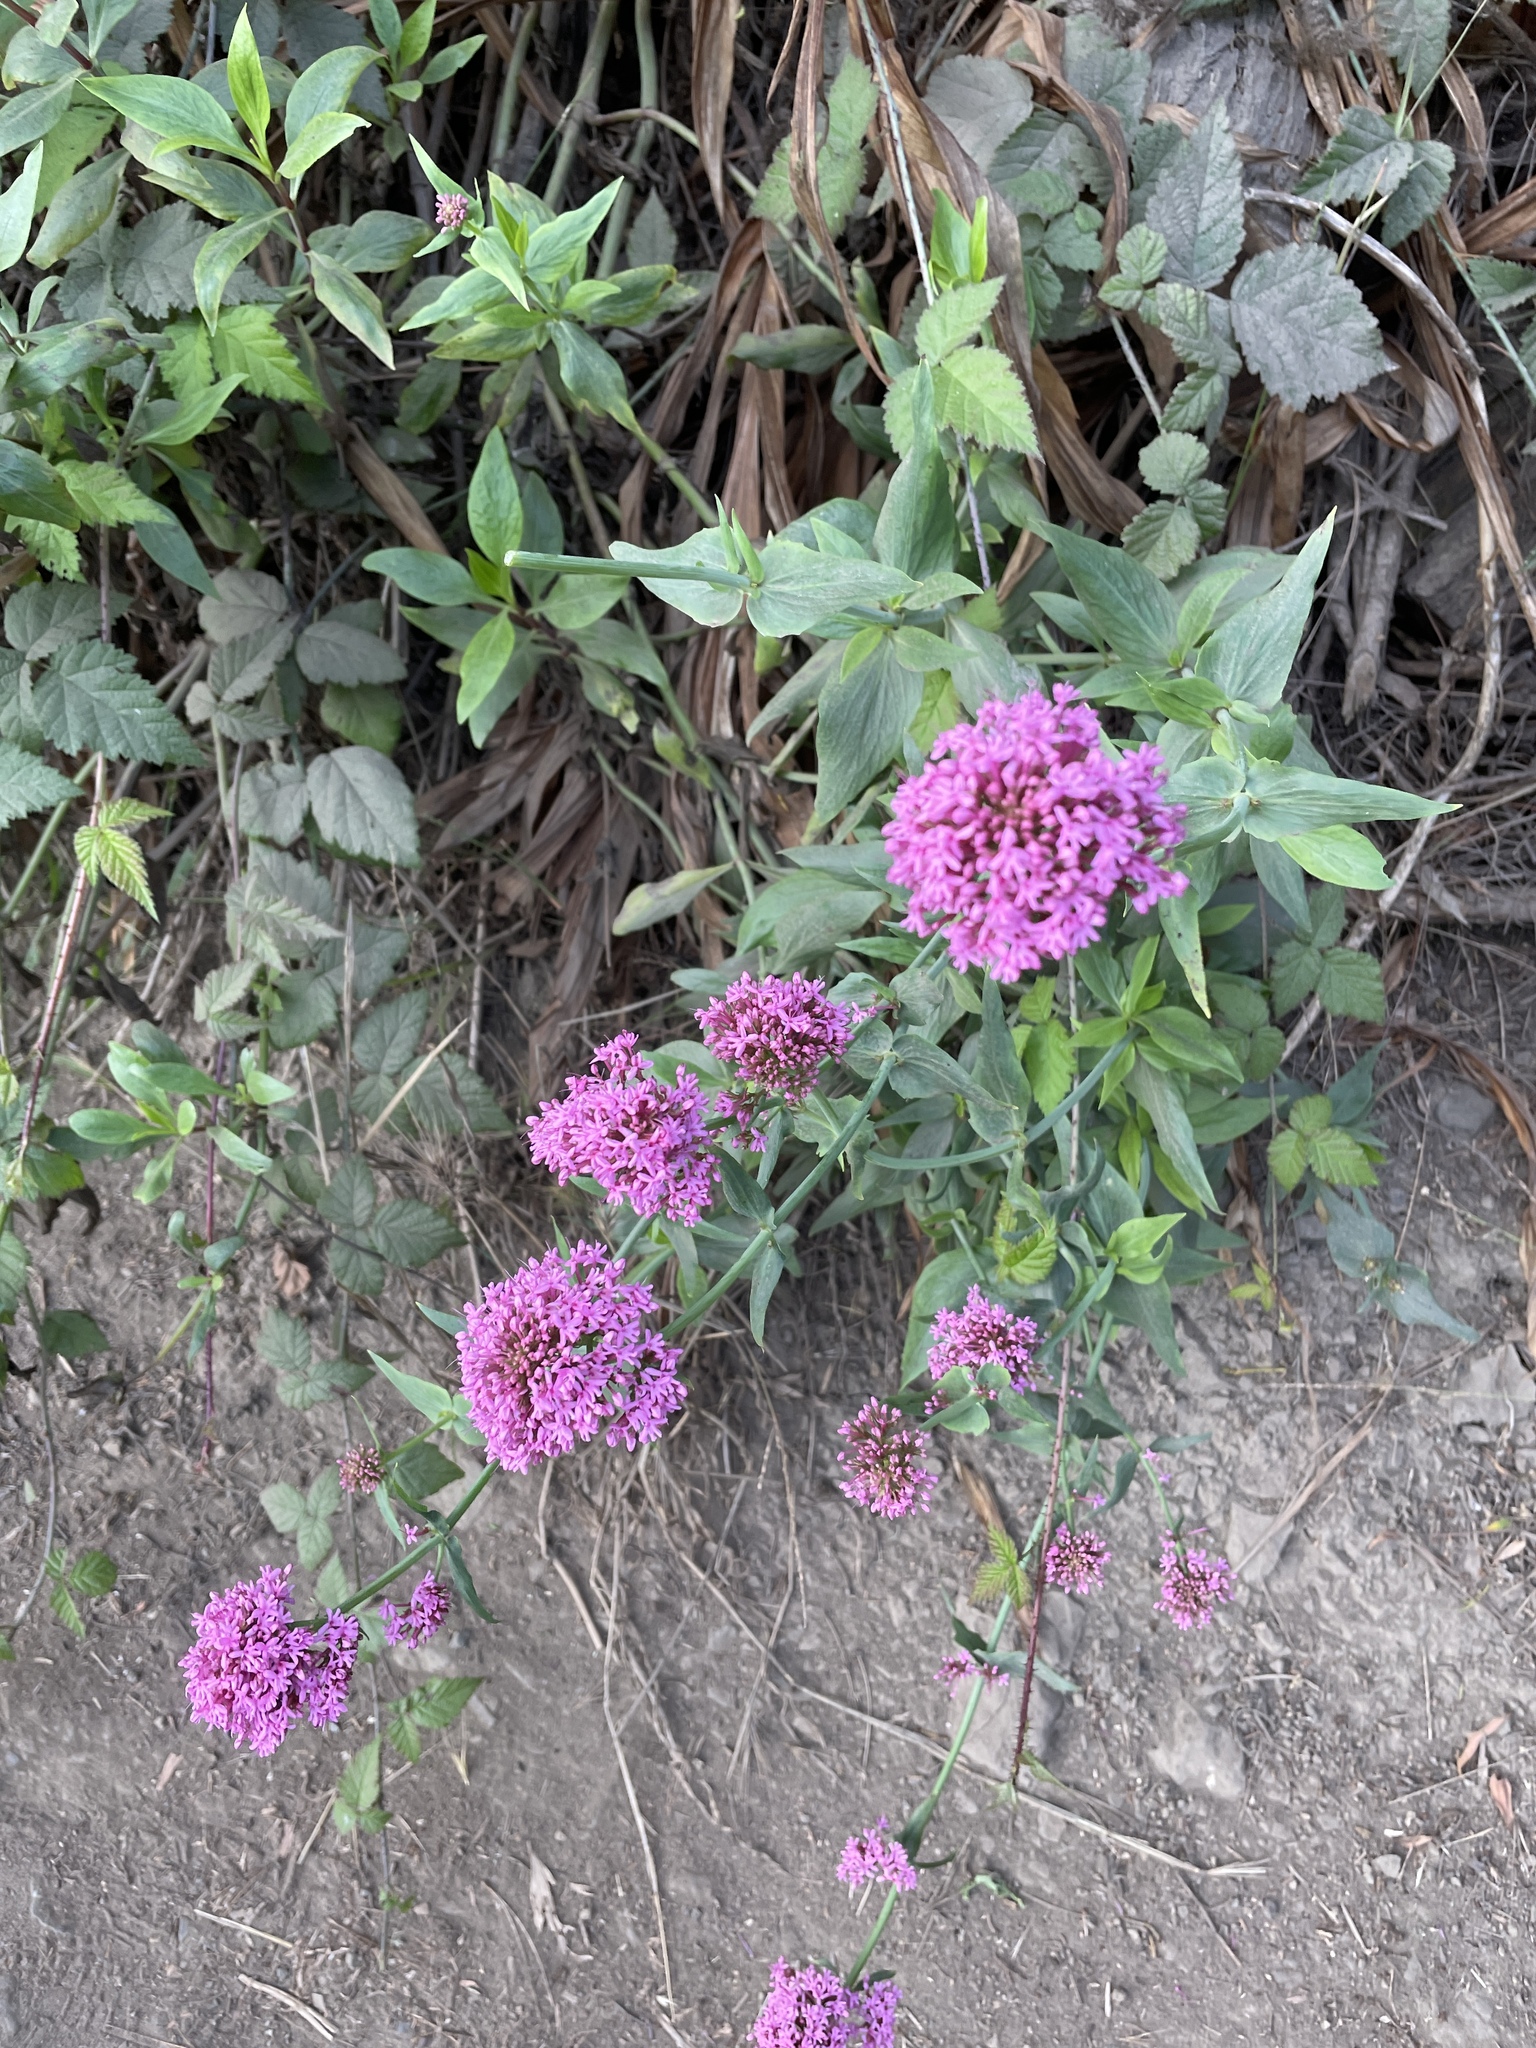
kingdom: Plantae
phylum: Tracheophyta
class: Magnoliopsida
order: Dipsacales
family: Caprifoliaceae
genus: Centranthus
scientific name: Centranthus ruber
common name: Red valerian
